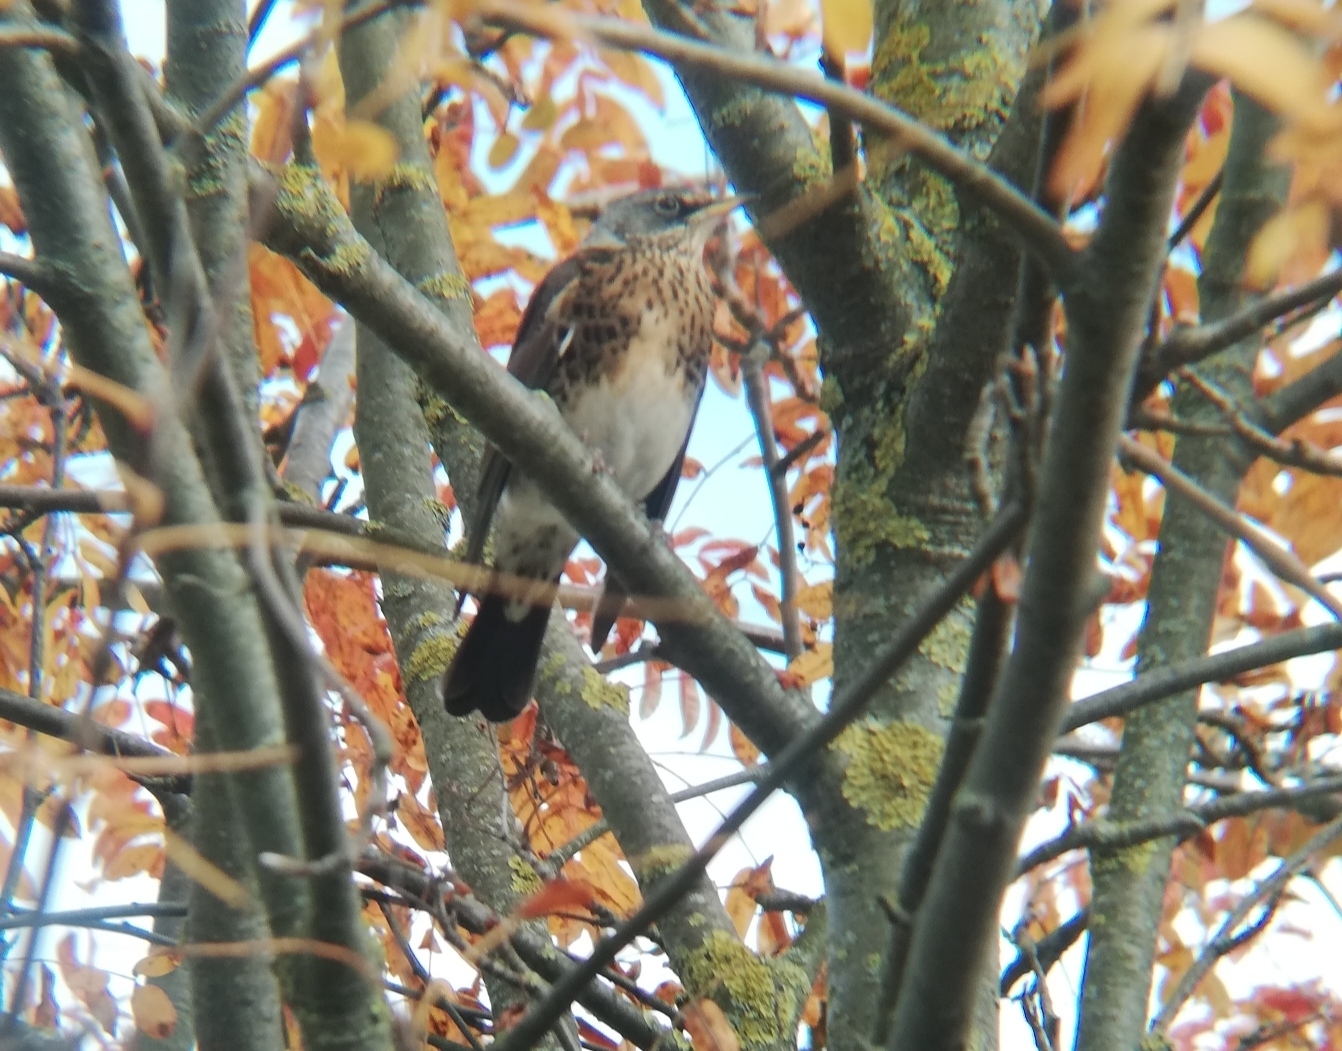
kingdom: Animalia
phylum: Chordata
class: Aves
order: Passeriformes
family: Turdidae
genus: Turdus
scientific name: Turdus pilaris
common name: Fieldfare
